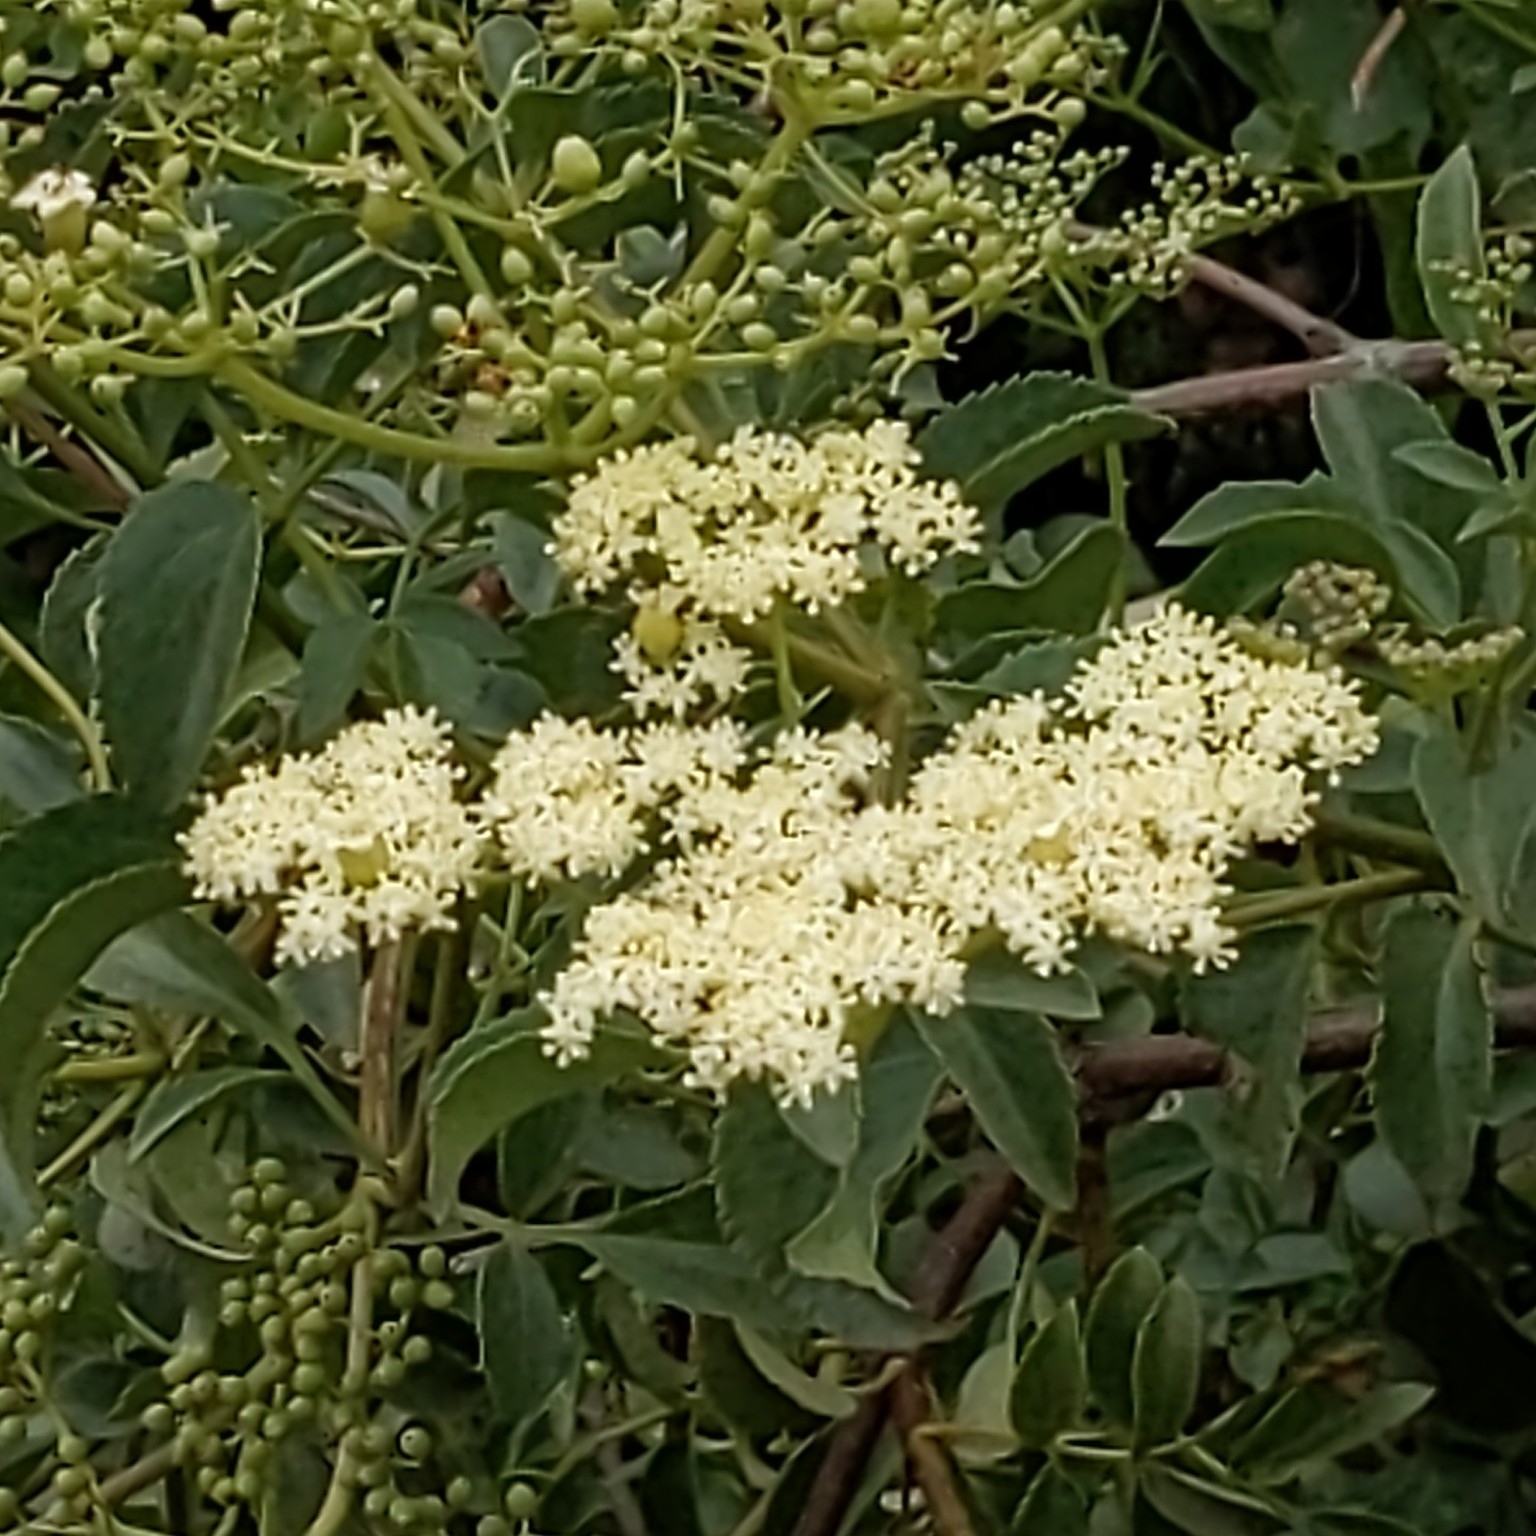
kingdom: Plantae
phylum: Tracheophyta
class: Magnoliopsida
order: Dipsacales
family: Viburnaceae
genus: Sambucus
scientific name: Sambucus cerulea
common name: Blue elder
